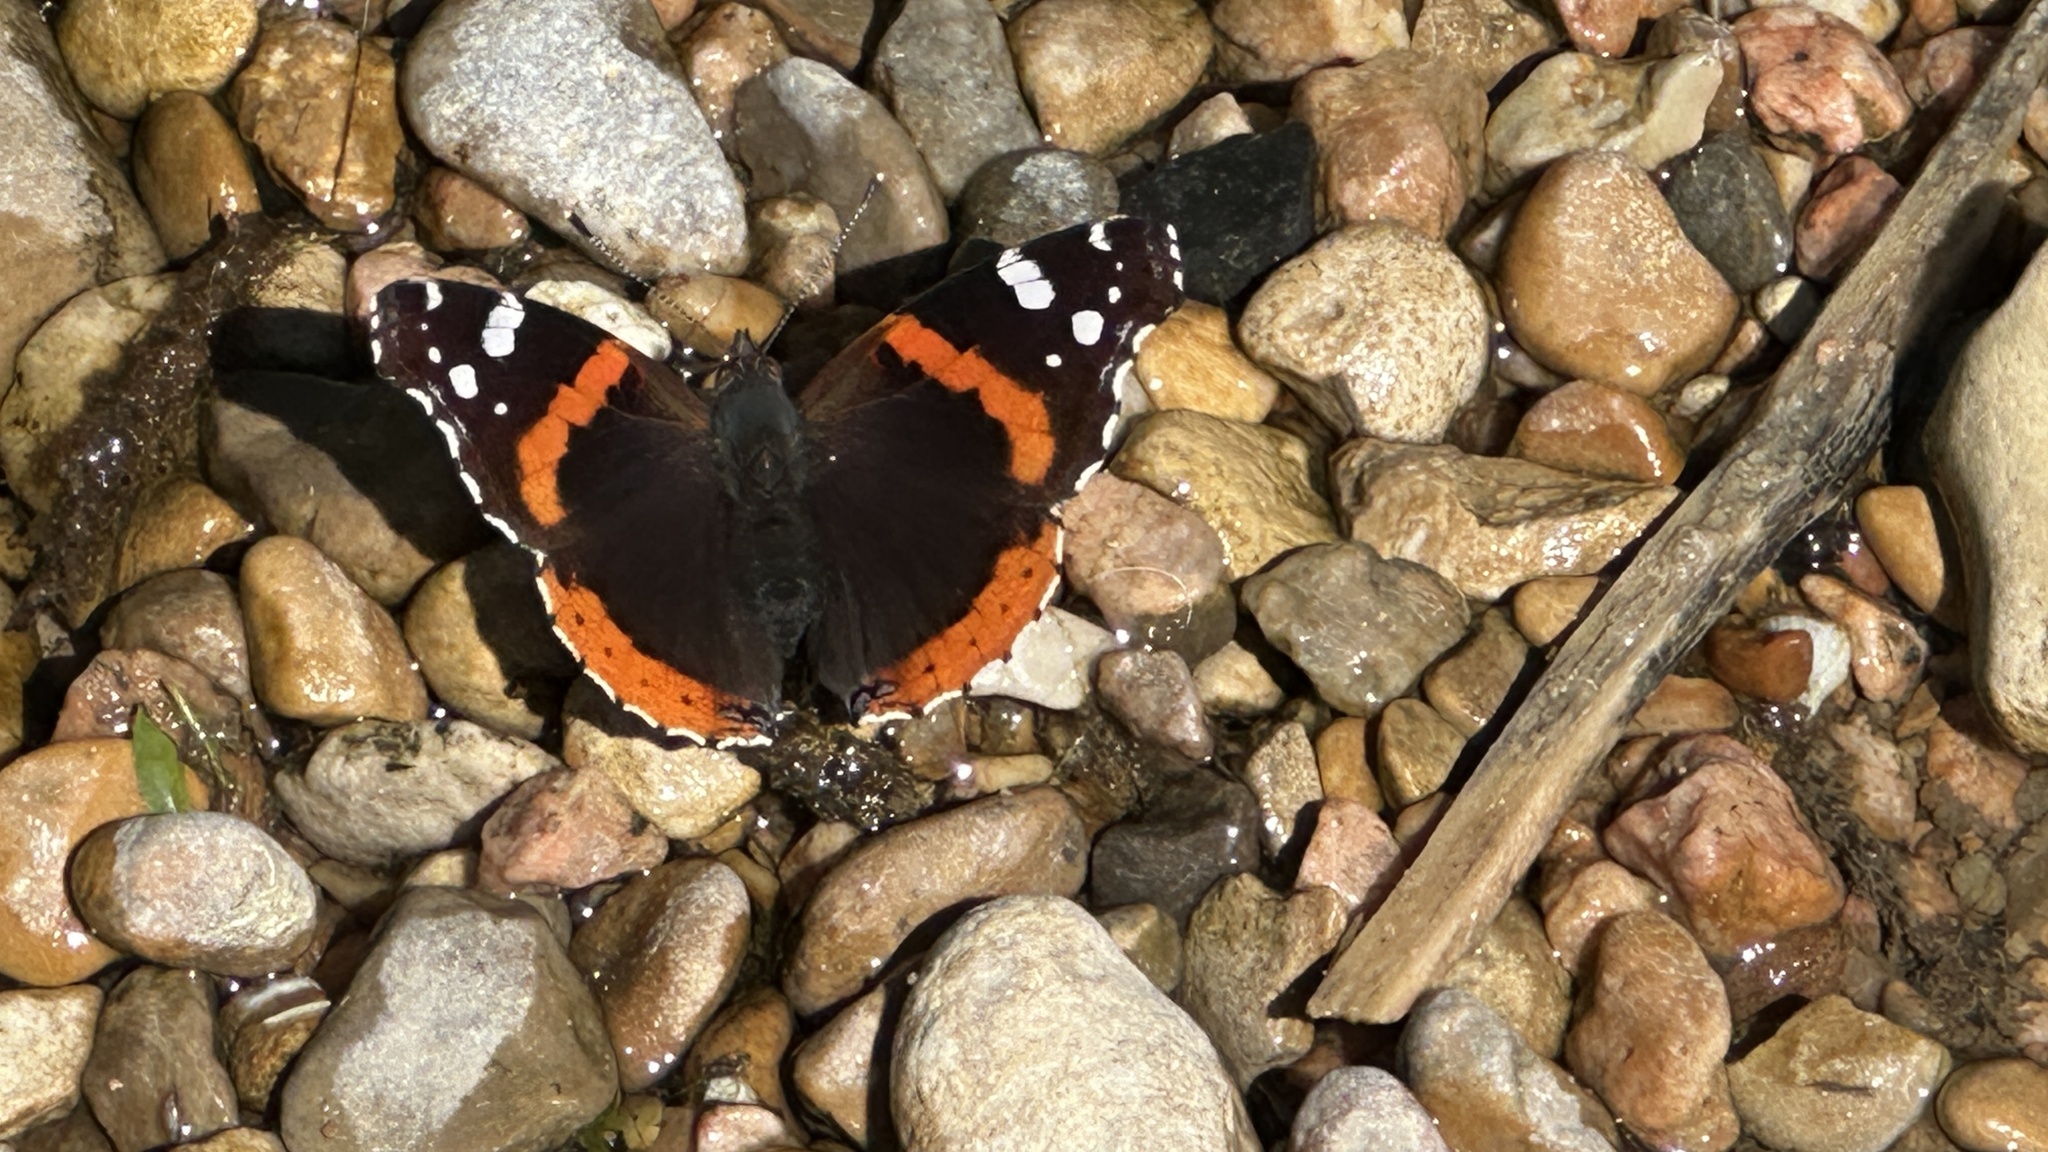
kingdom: Animalia
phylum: Arthropoda
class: Insecta
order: Lepidoptera
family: Nymphalidae
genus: Vanessa
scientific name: Vanessa atalanta
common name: Red admiral
